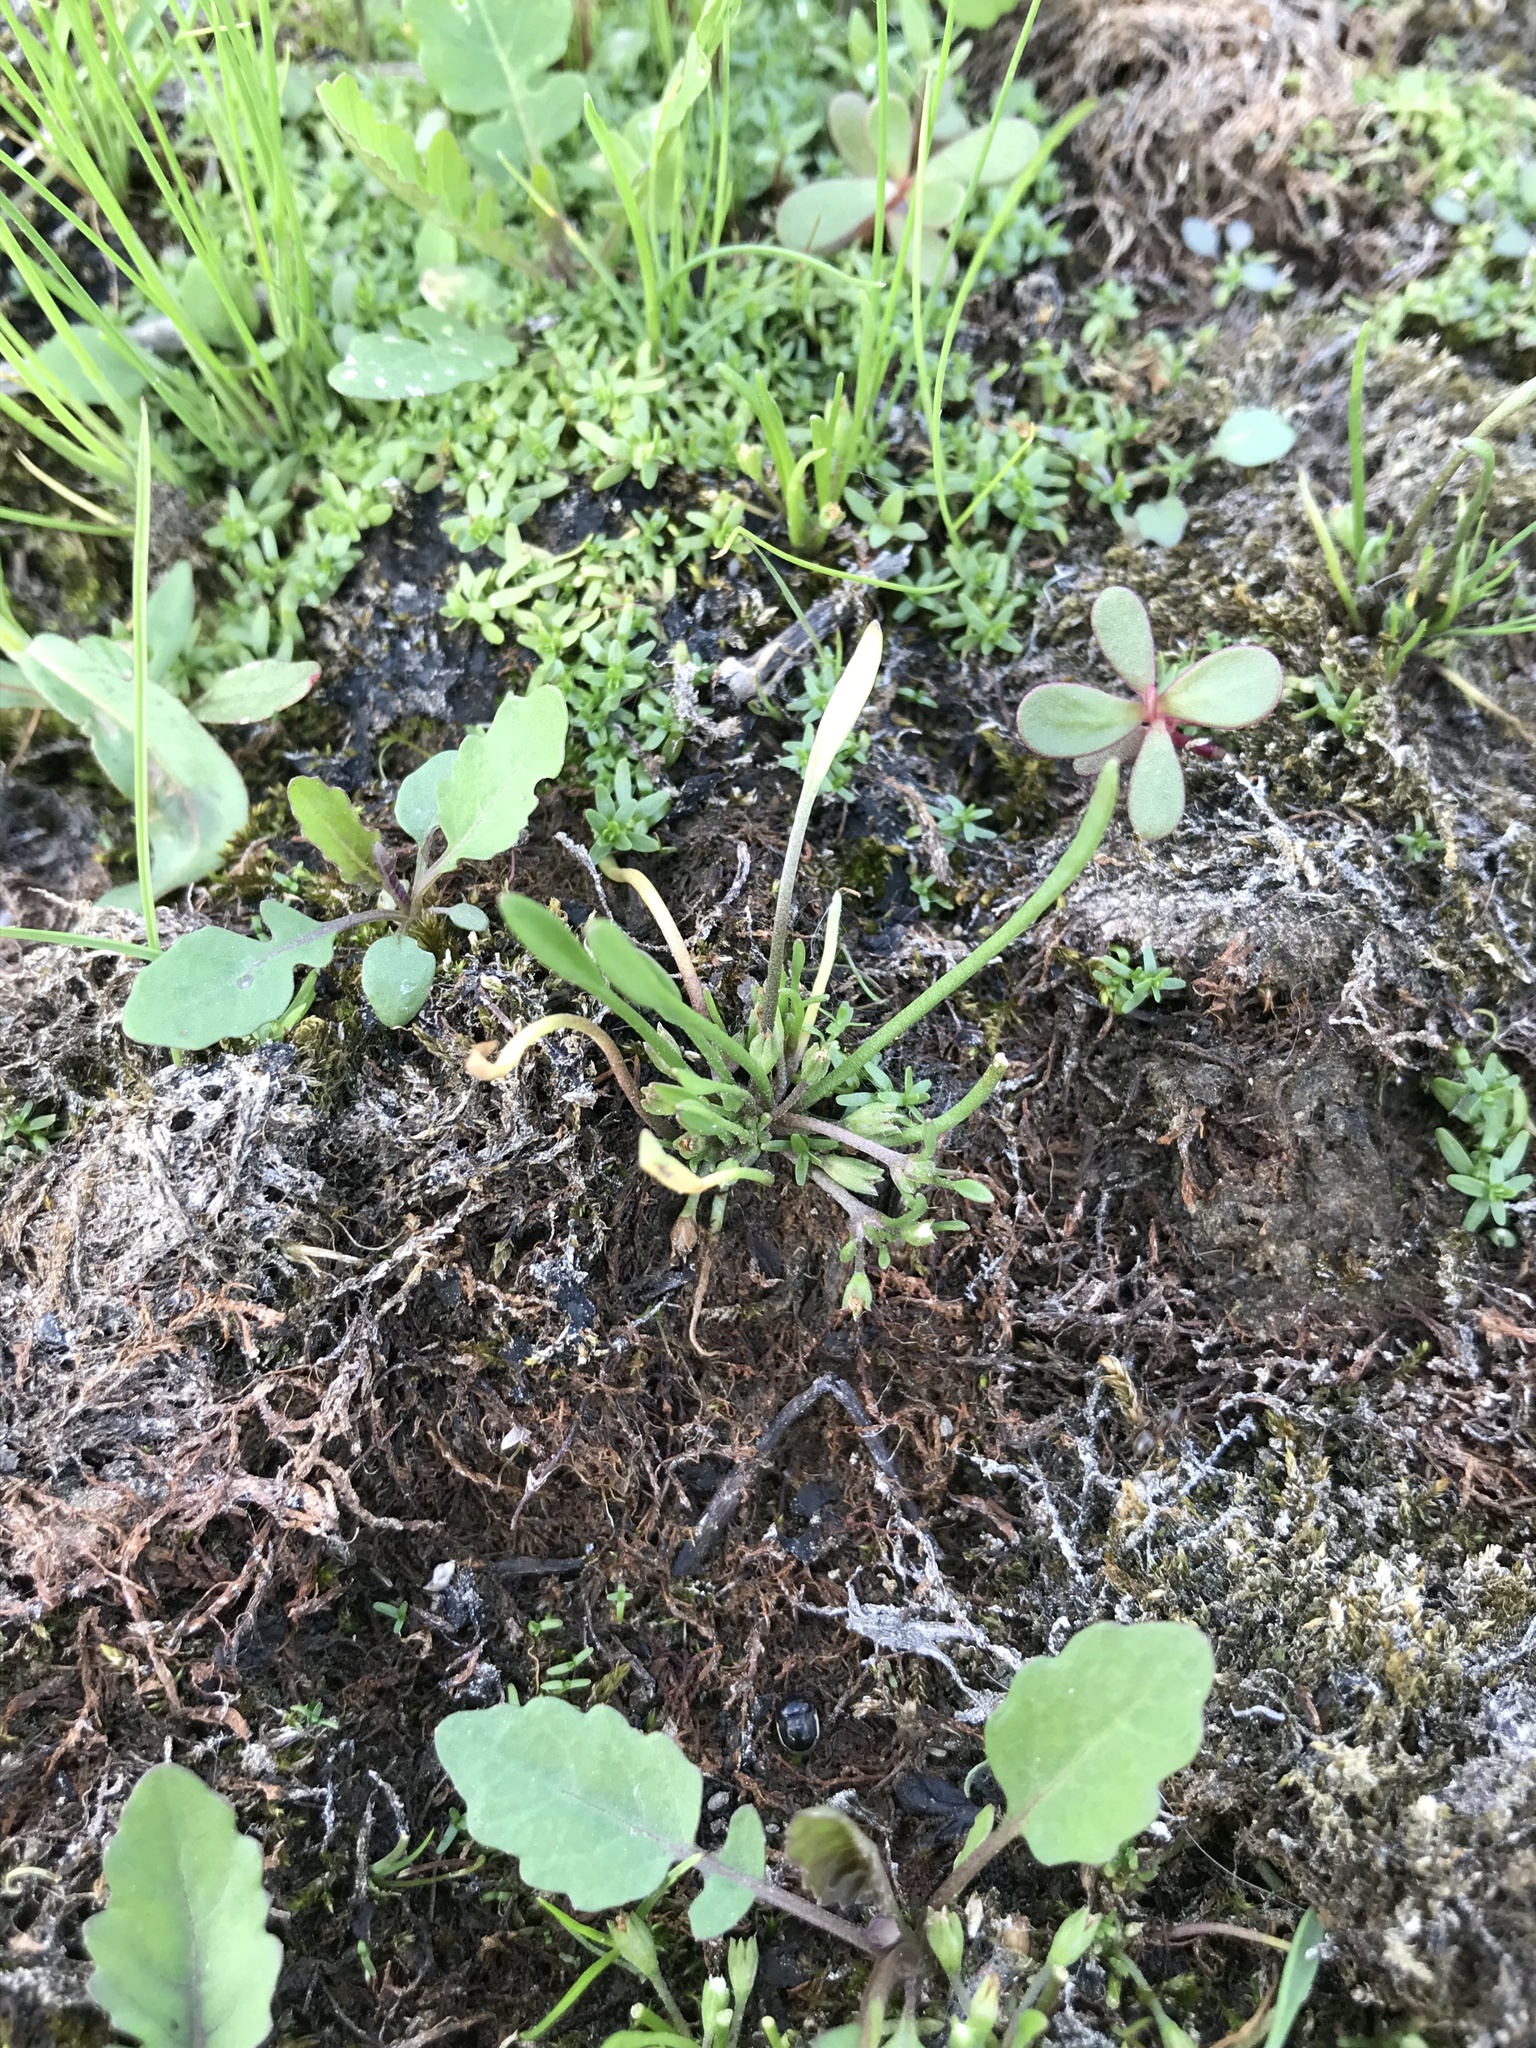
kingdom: Plantae
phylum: Tracheophyta
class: Magnoliopsida
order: Lamiales
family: Scrophulariaceae
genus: Limosella
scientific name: Limosella aquatica
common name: Mudwort
